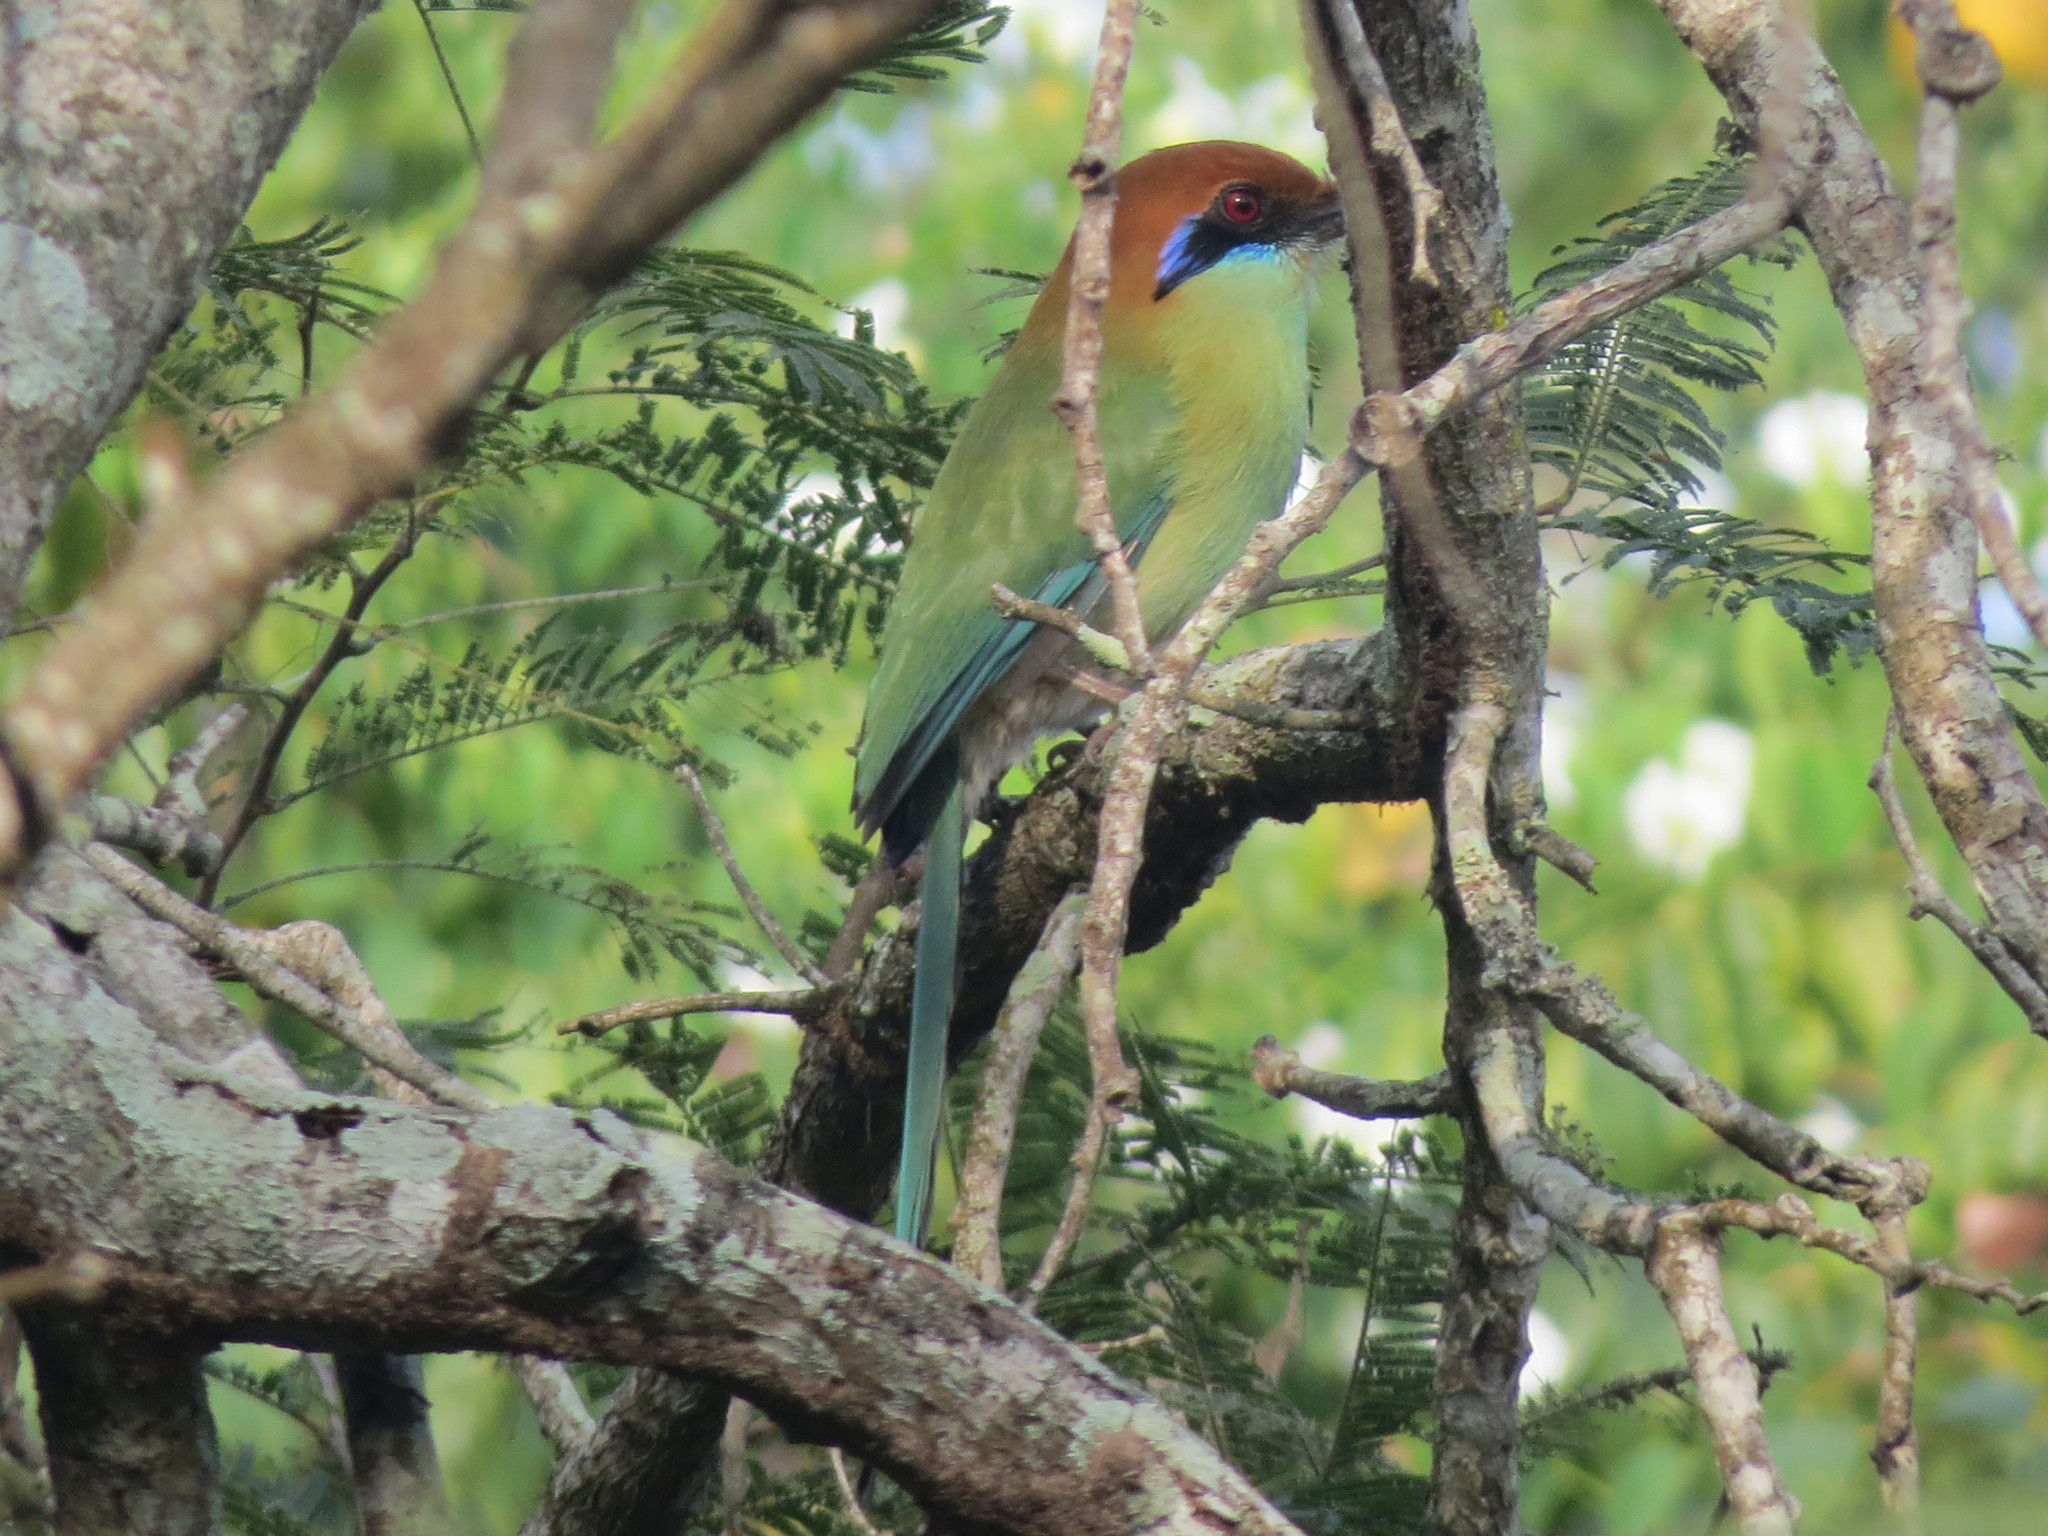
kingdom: Animalia
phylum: Chordata
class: Aves
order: Coraciiformes
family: Momotidae
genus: Momotus
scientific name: Momotus mexicanus
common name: Russet-crowned motmot
